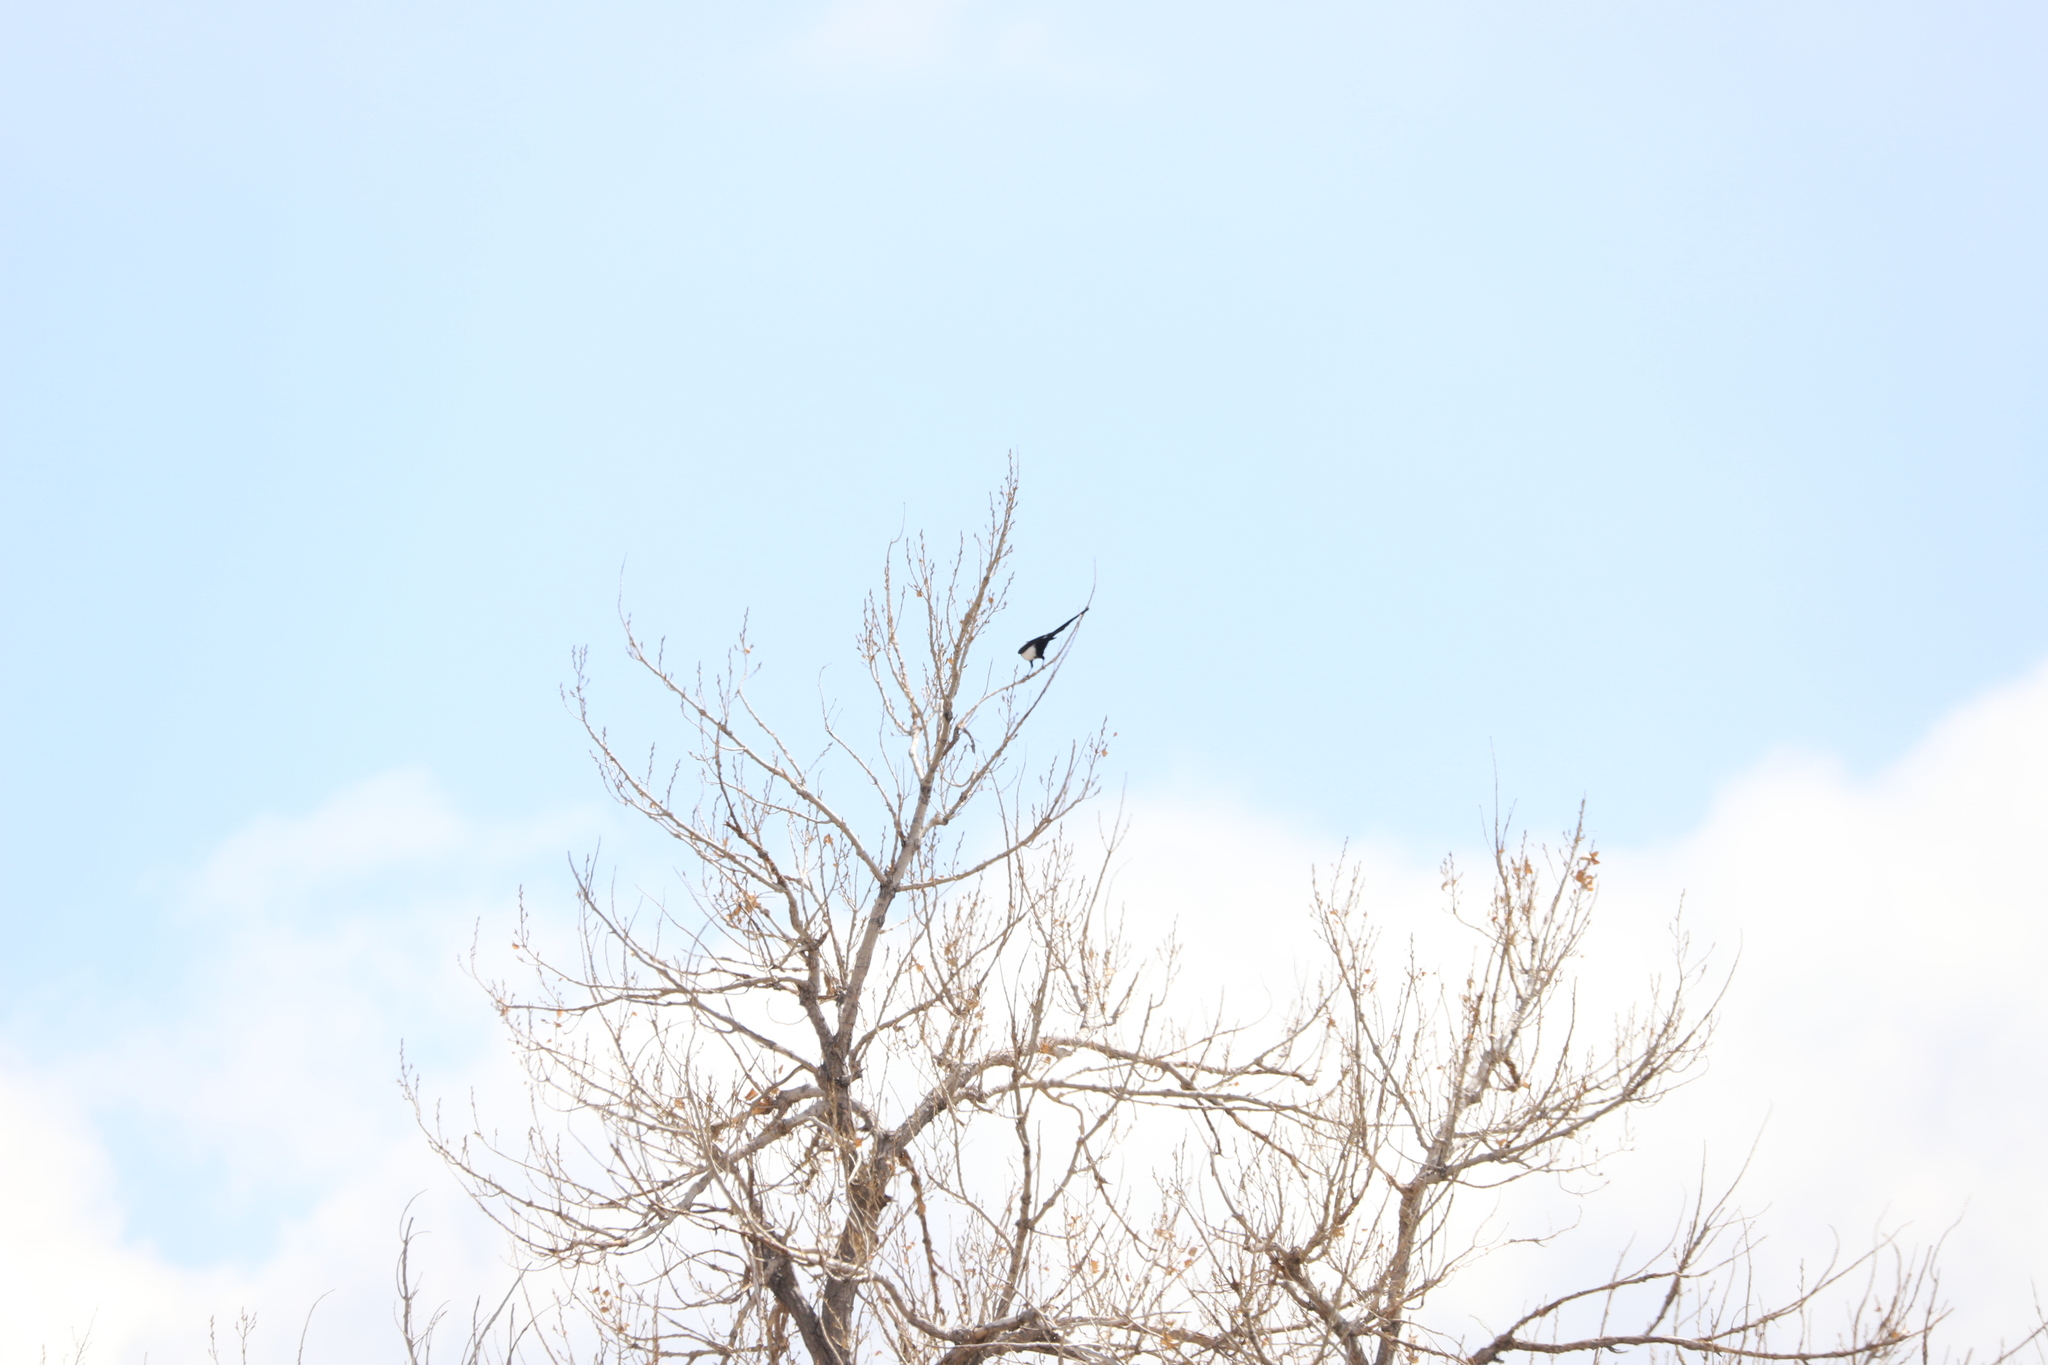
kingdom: Animalia
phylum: Chordata
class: Aves
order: Passeriformes
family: Corvidae
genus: Pica
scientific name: Pica hudsonia
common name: Black-billed magpie
